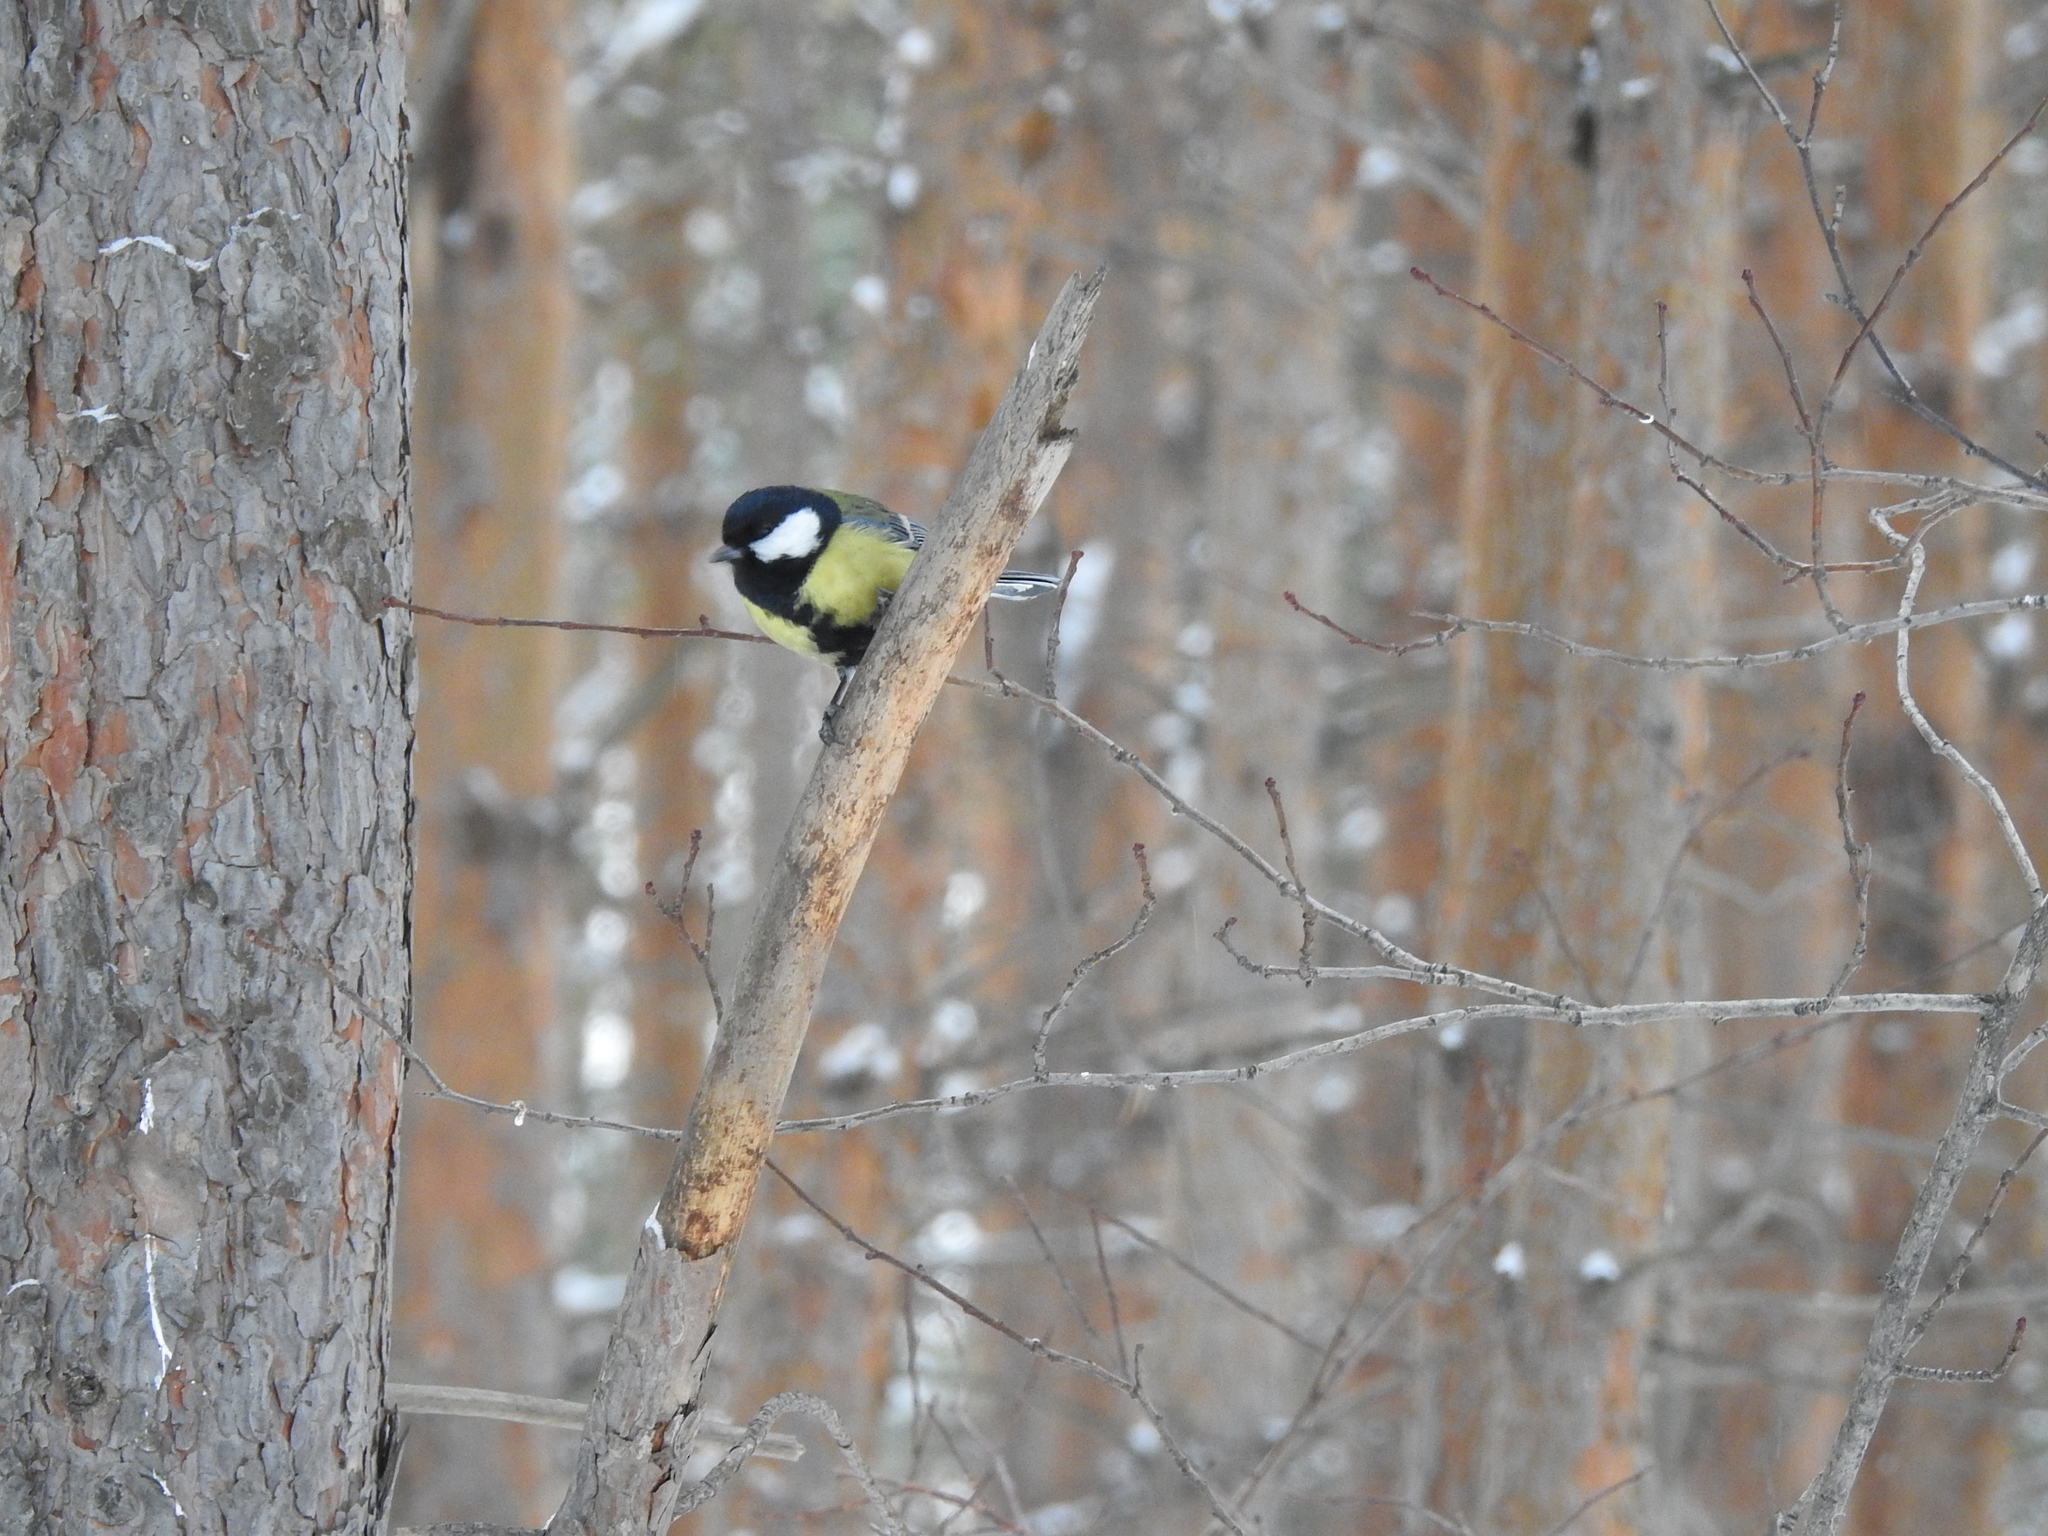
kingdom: Animalia
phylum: Chordata
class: Aves
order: Passeriformes
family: Paridae
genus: Parus
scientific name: Parus major
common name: Great tit
